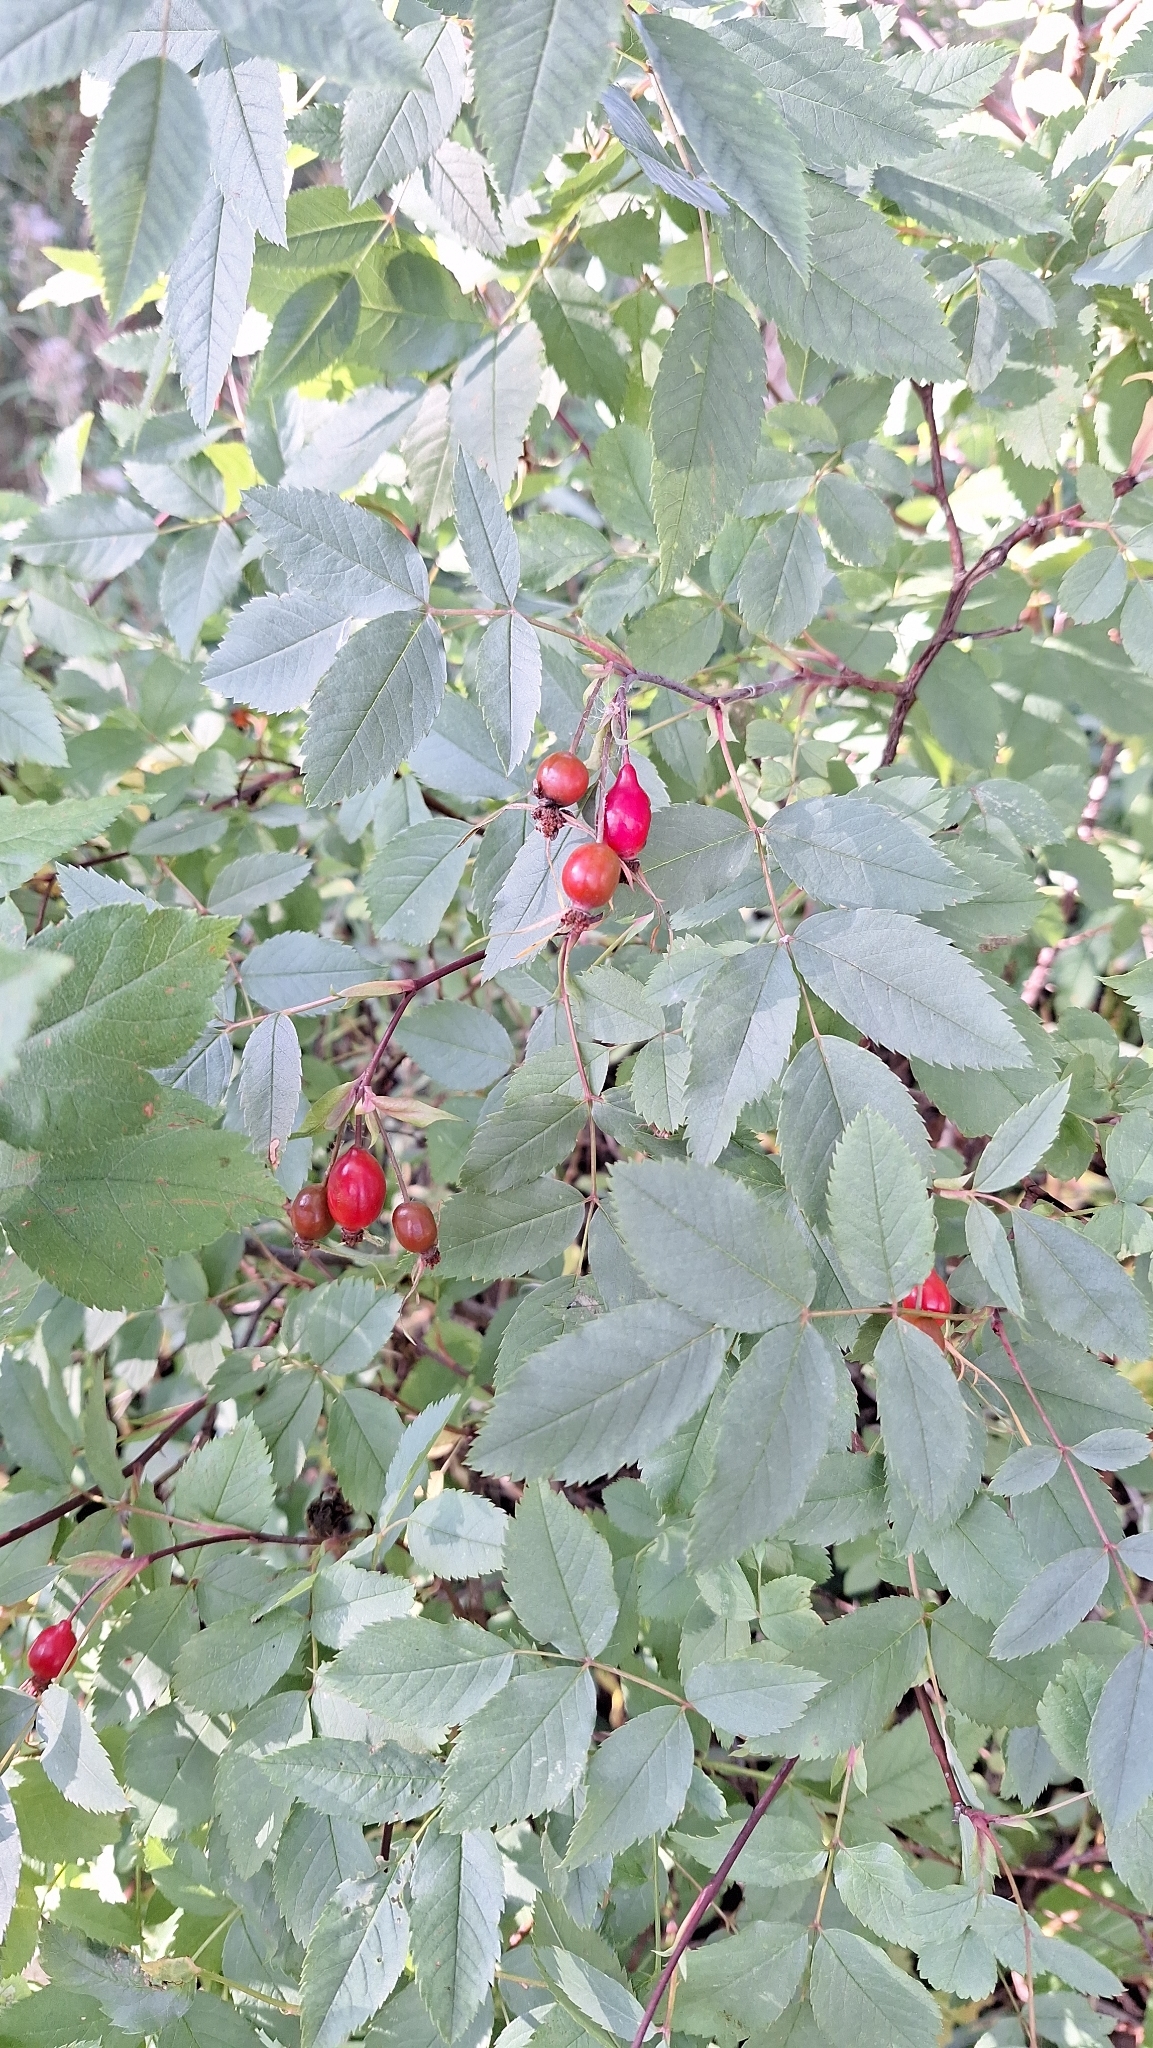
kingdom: Plantae
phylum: Tracheophyta
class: Magnoliopsida
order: Rosales
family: Rosaceae
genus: Rosa
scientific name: Rosa glauca
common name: Redleaf rose
